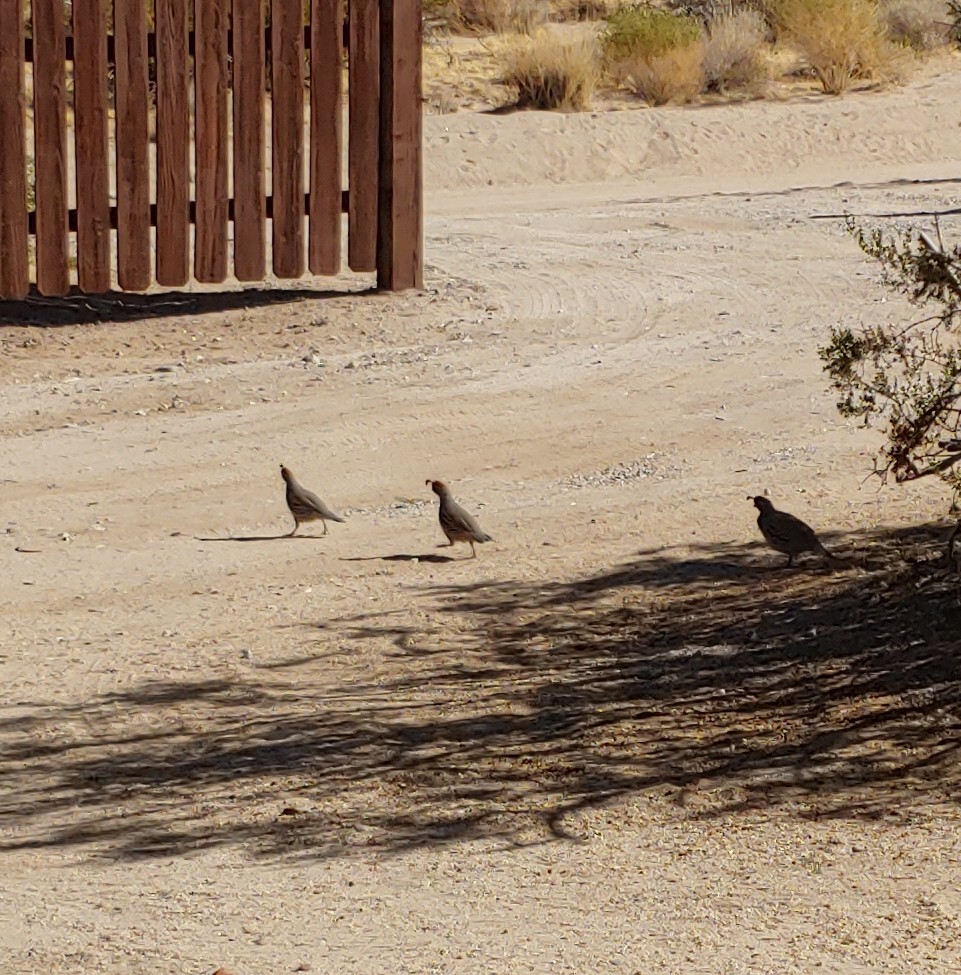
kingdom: Animalia
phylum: Chordata
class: Aves
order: Galliformes
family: Odontophoridae
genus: Callipepla
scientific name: Callipepla gambelii
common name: Gambel's quail
